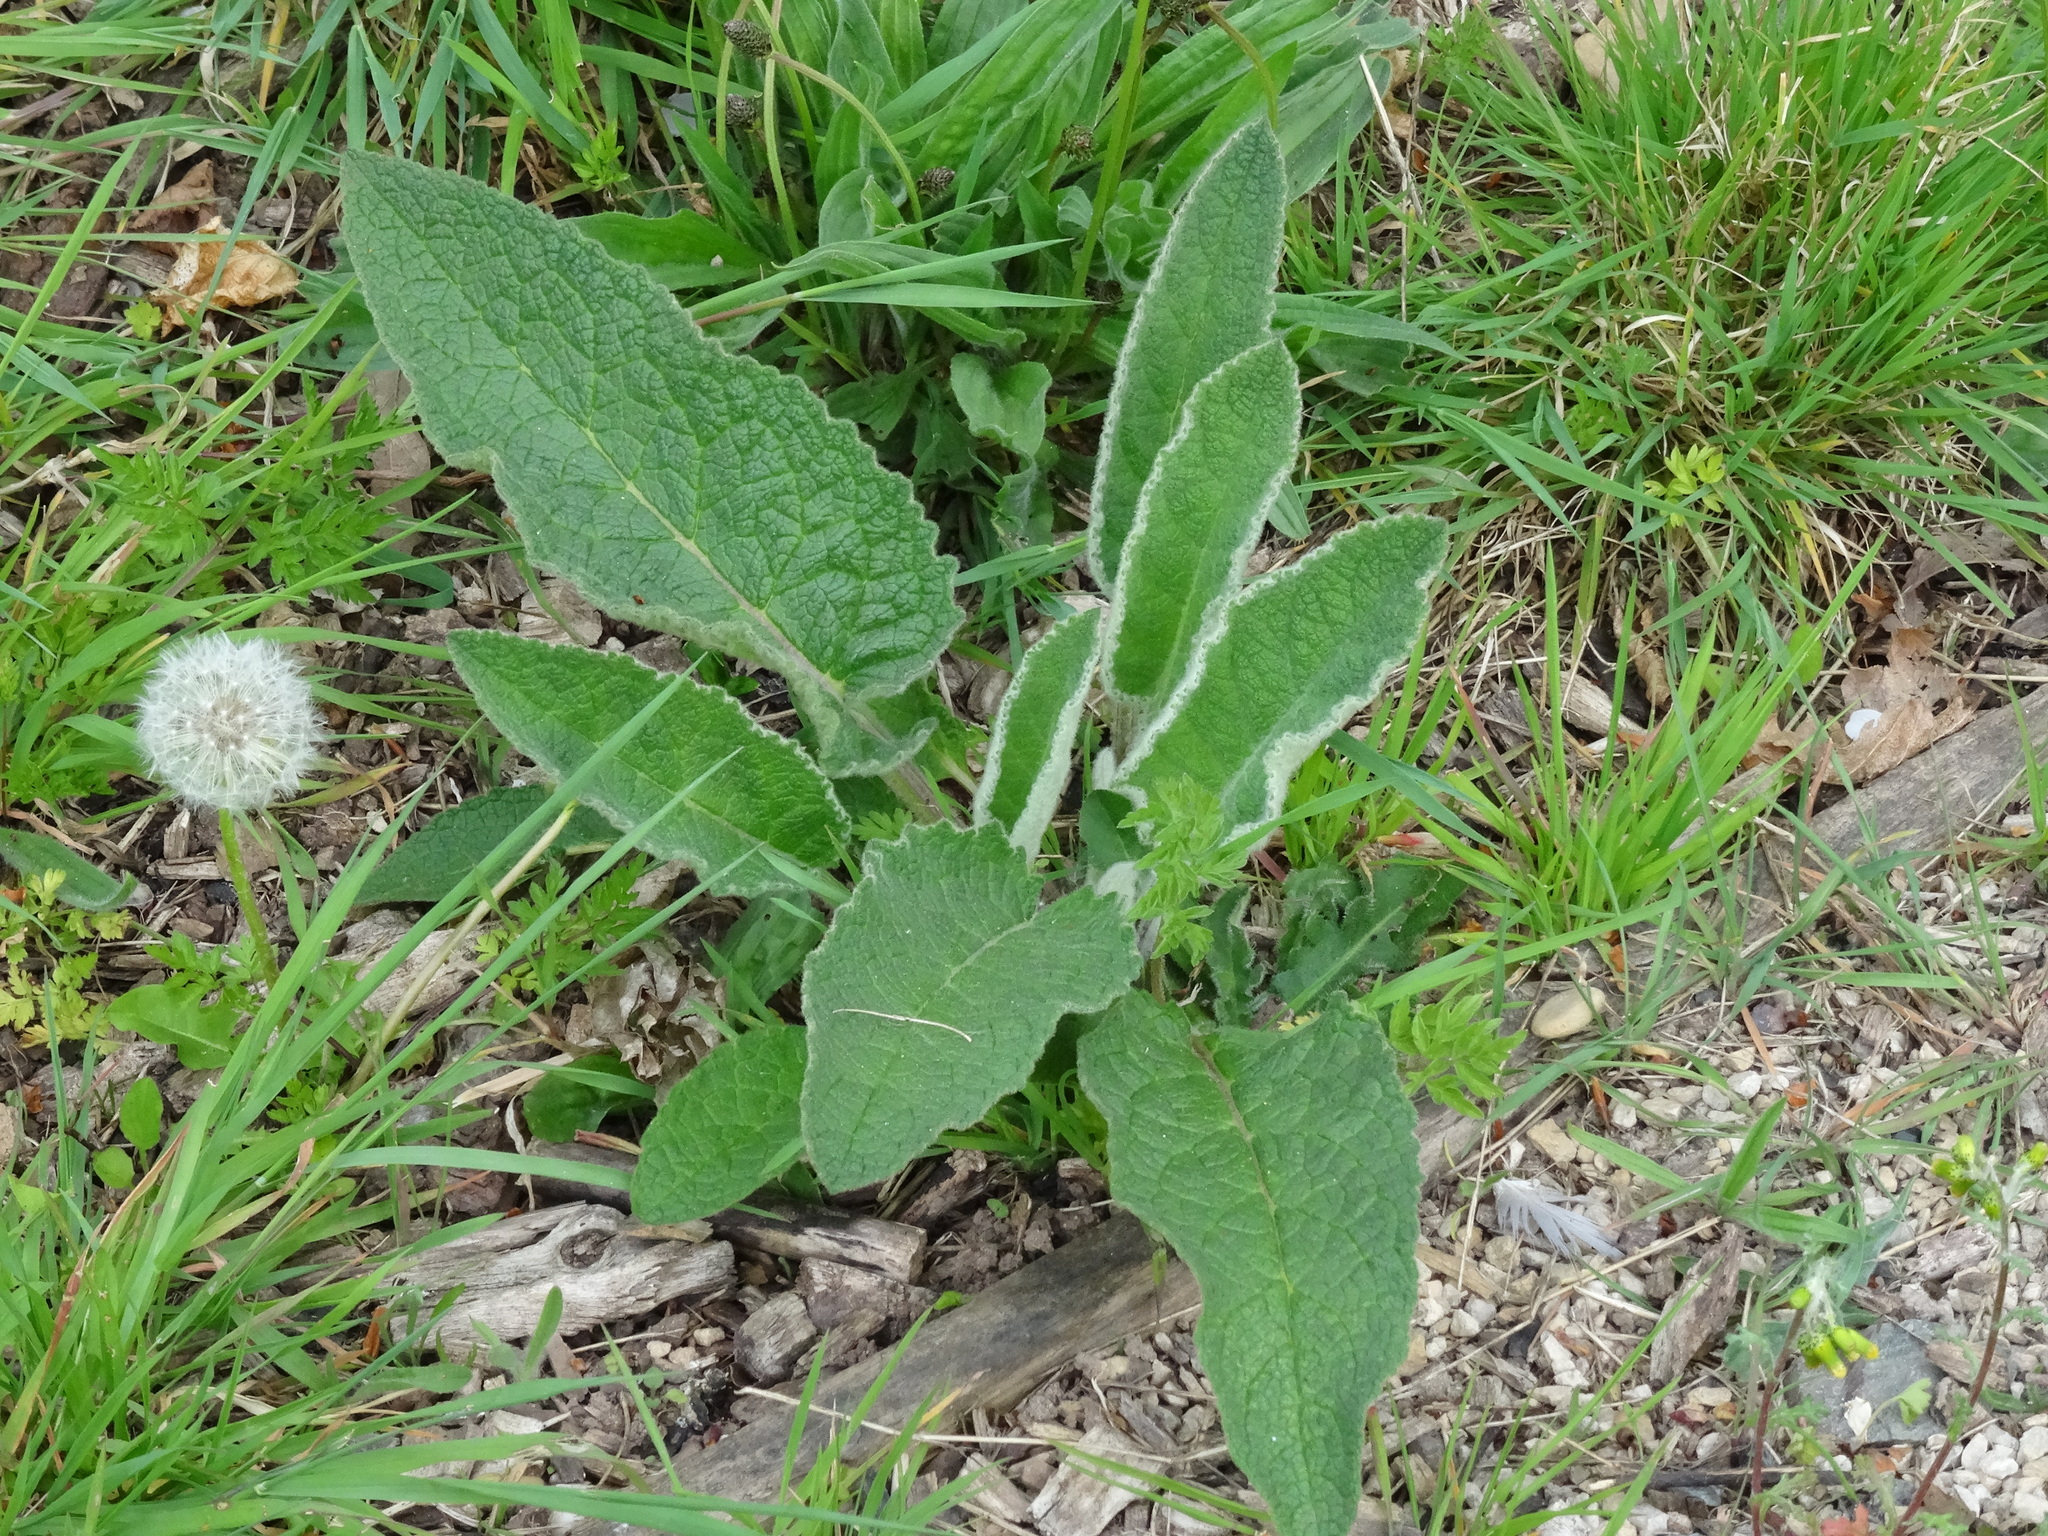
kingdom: Plantae
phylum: Tracheophyta
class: Magnoliopsida
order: Lamiales
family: Scrophulariaceae
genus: Verbascum
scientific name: Verbascum nigrum
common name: Dark mullein
